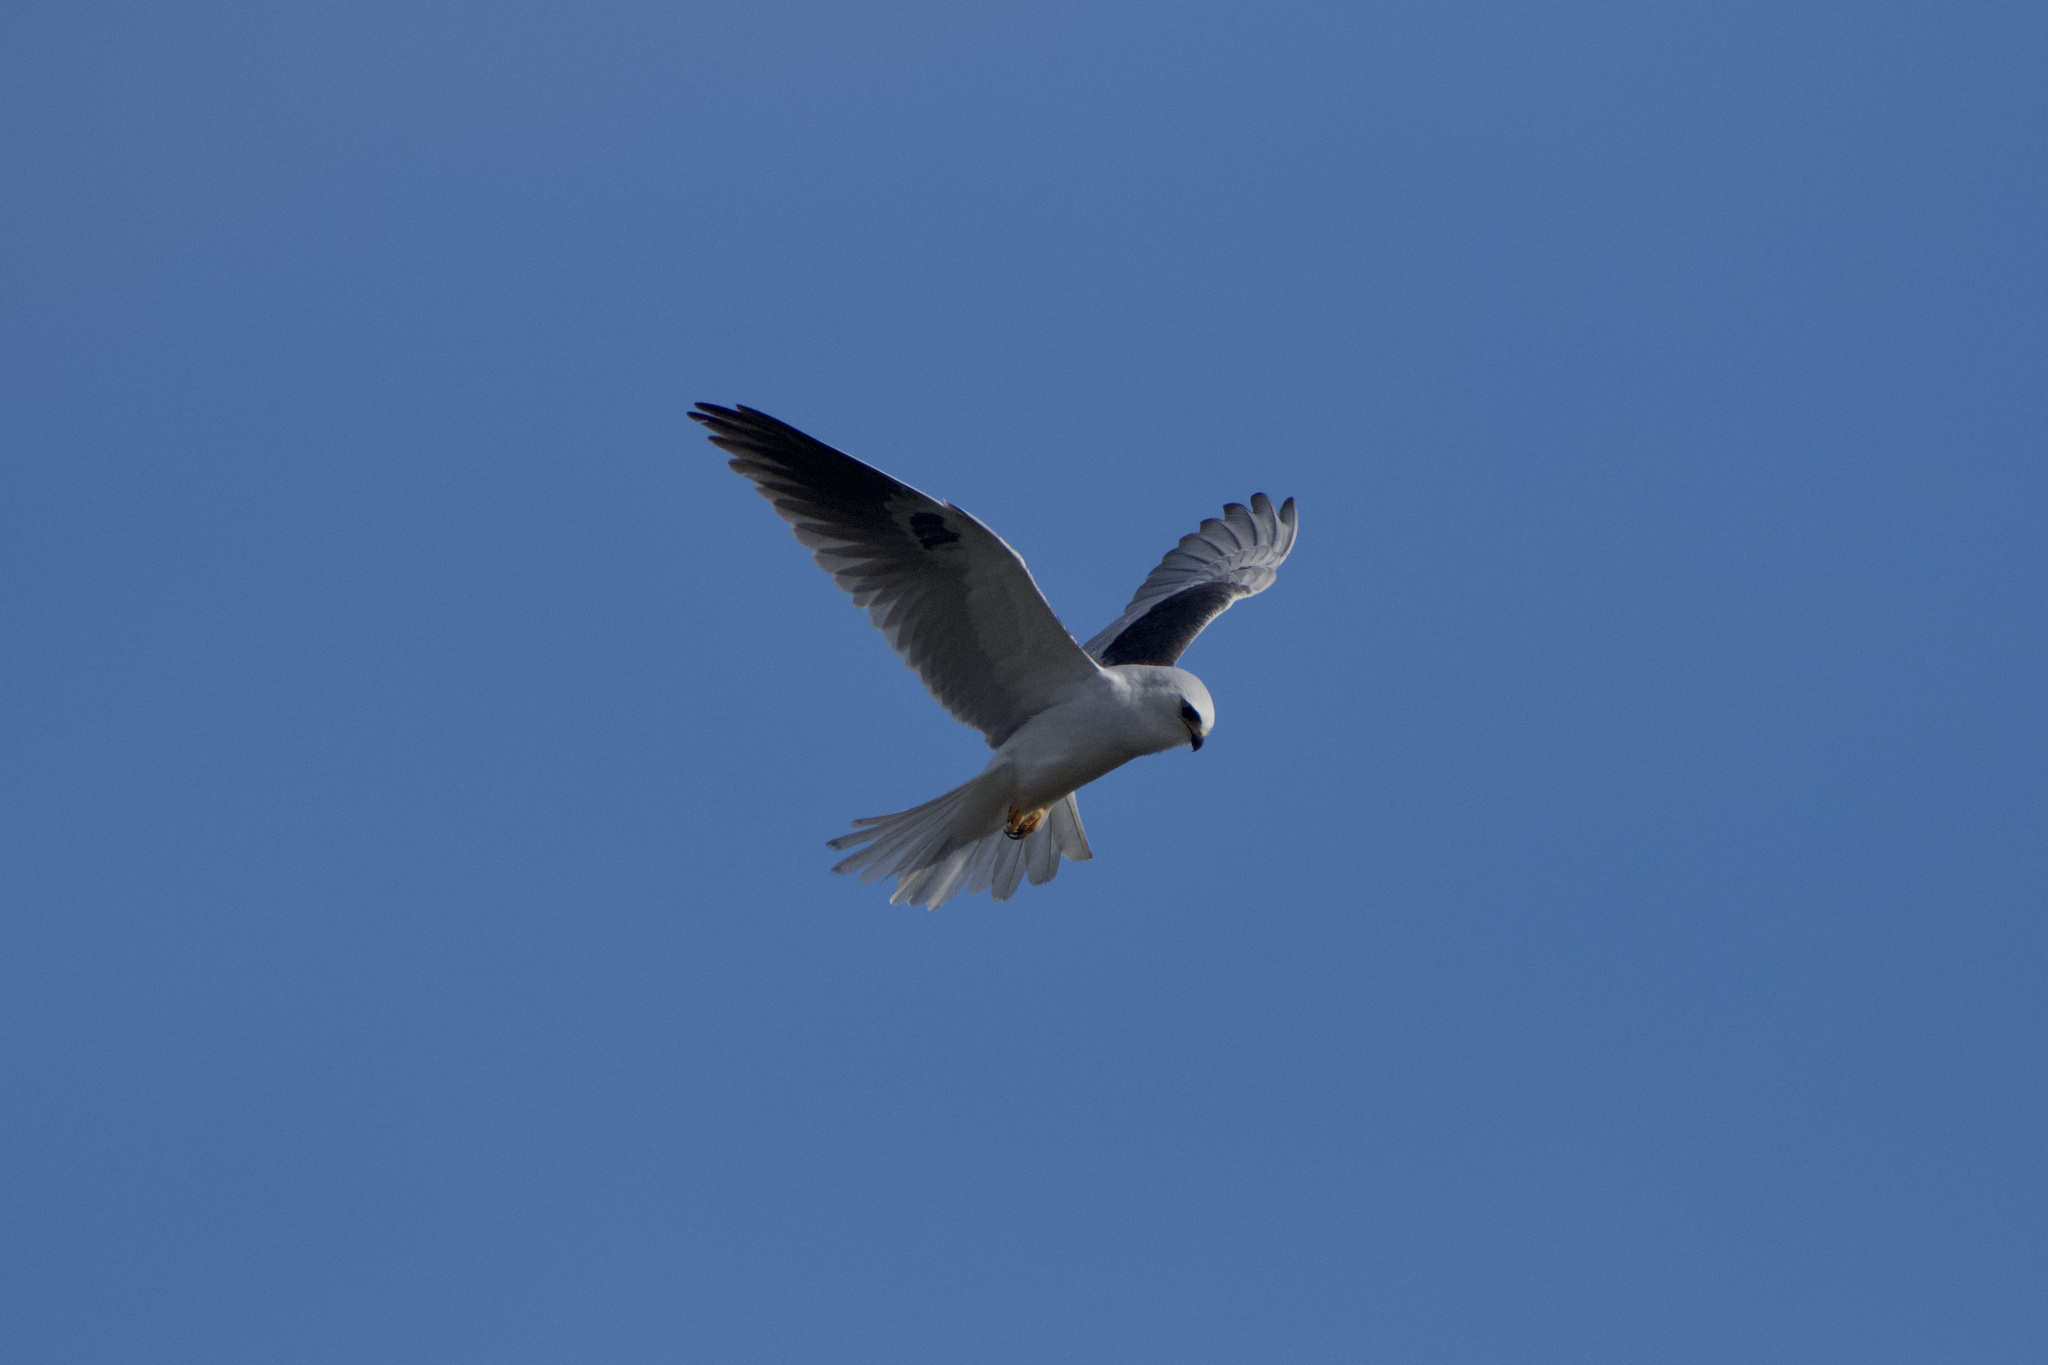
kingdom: Animalia
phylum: Chordata
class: Aves
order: Accipitriformes
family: Accipitridae
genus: Elanus
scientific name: Elanus leucurus
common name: White-tailed kite
